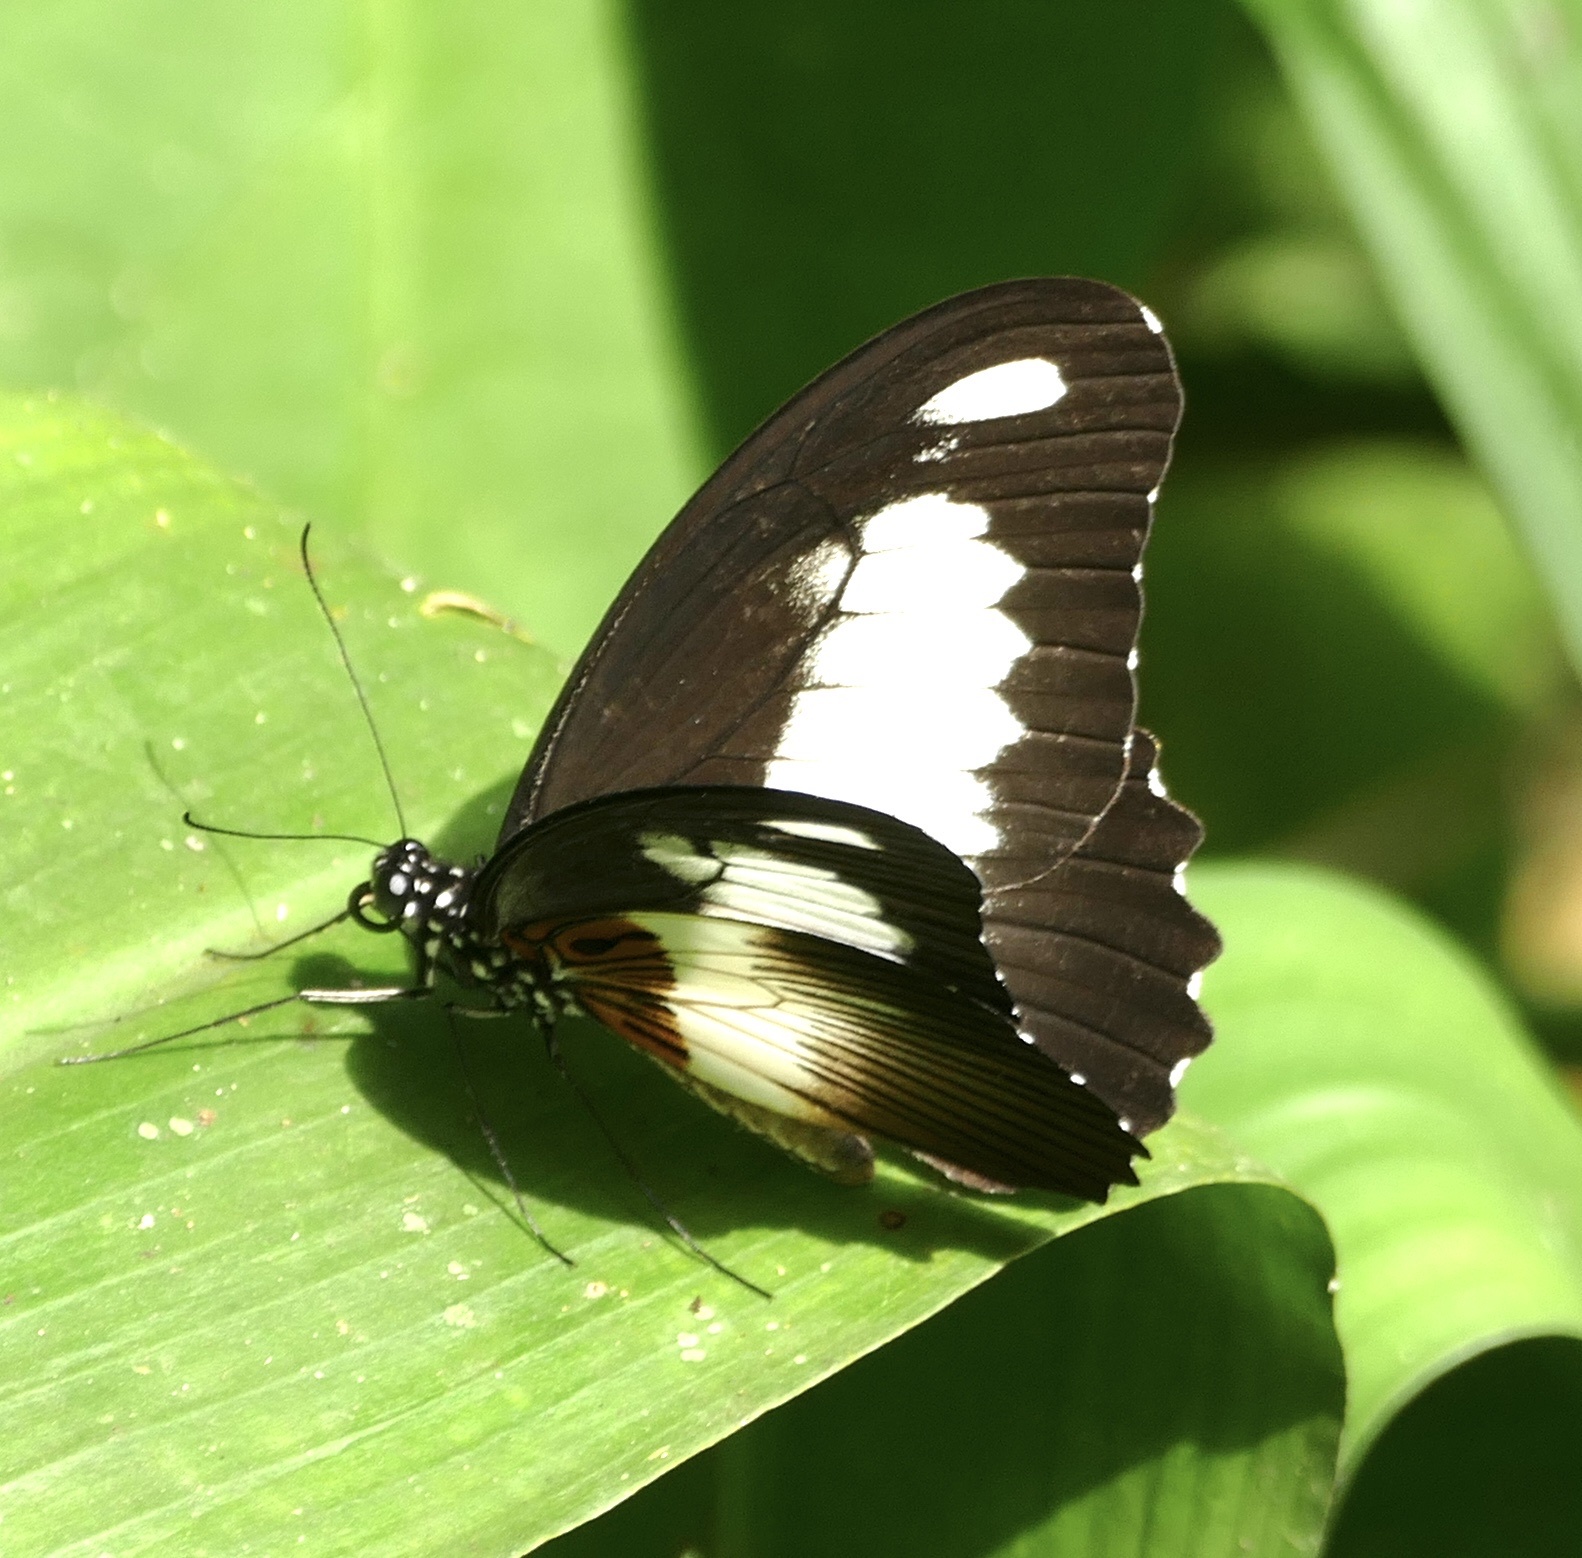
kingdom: Animalia
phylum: Arthropoda
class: Insecta
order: Lepidoptera
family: Papilionidae
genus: Papilio
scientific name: Papilio zenobia
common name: Volta swallowtail
